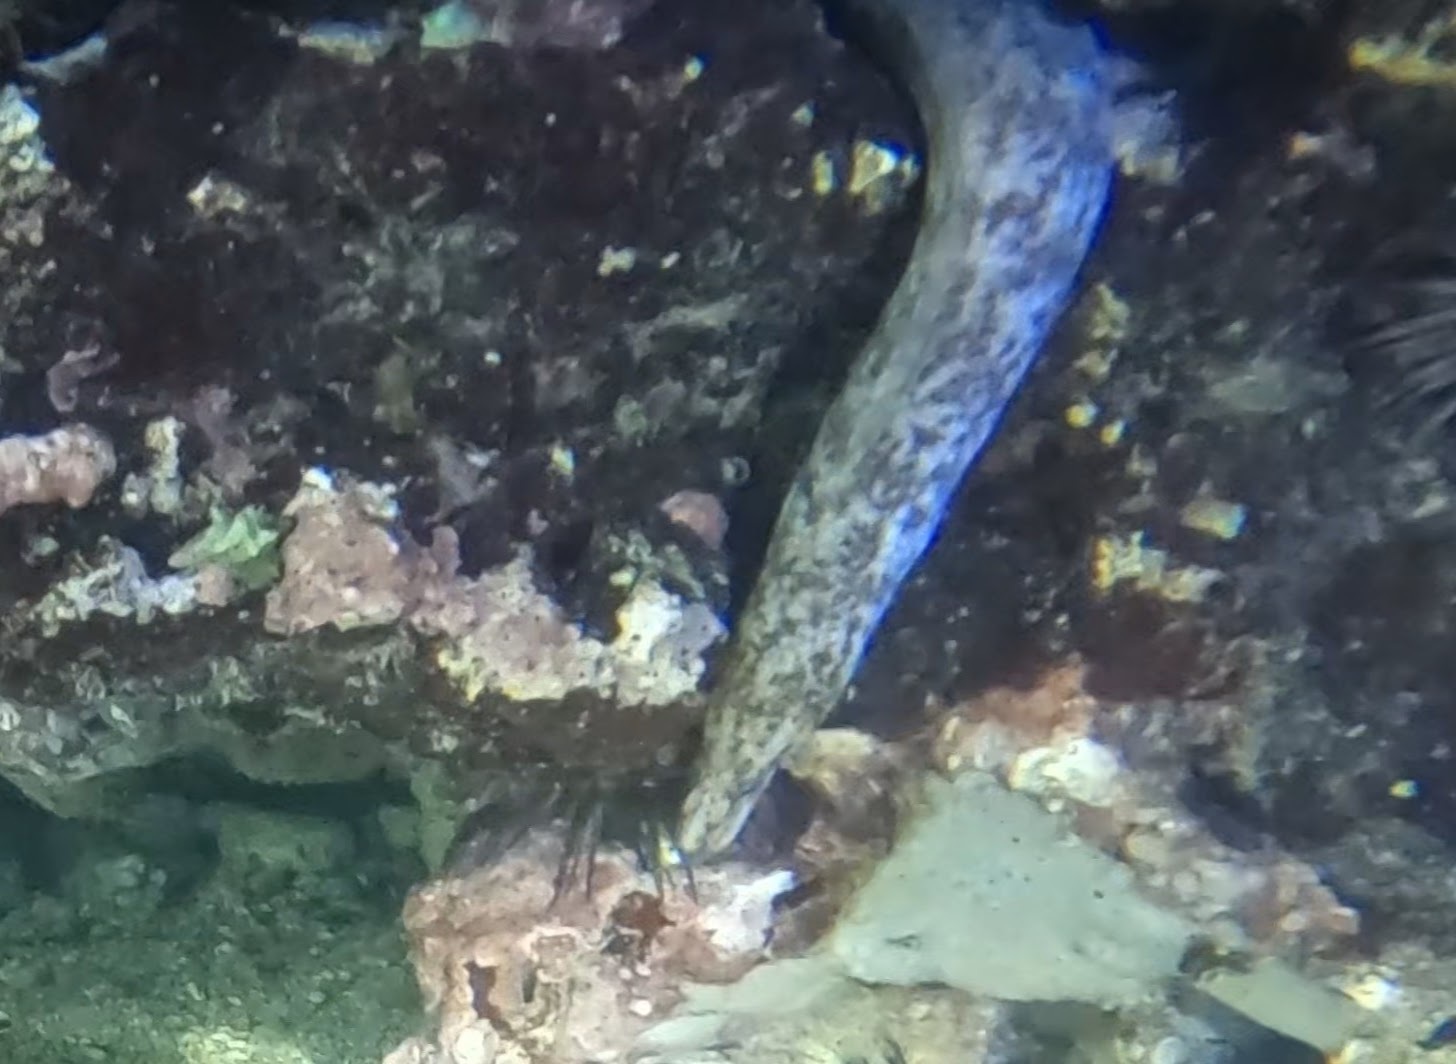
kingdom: Animalia
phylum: Chordata
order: Anguilliformes
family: Muraenidae
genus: Gymnothorax
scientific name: Gymnothorax moringa
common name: Spotted moray
